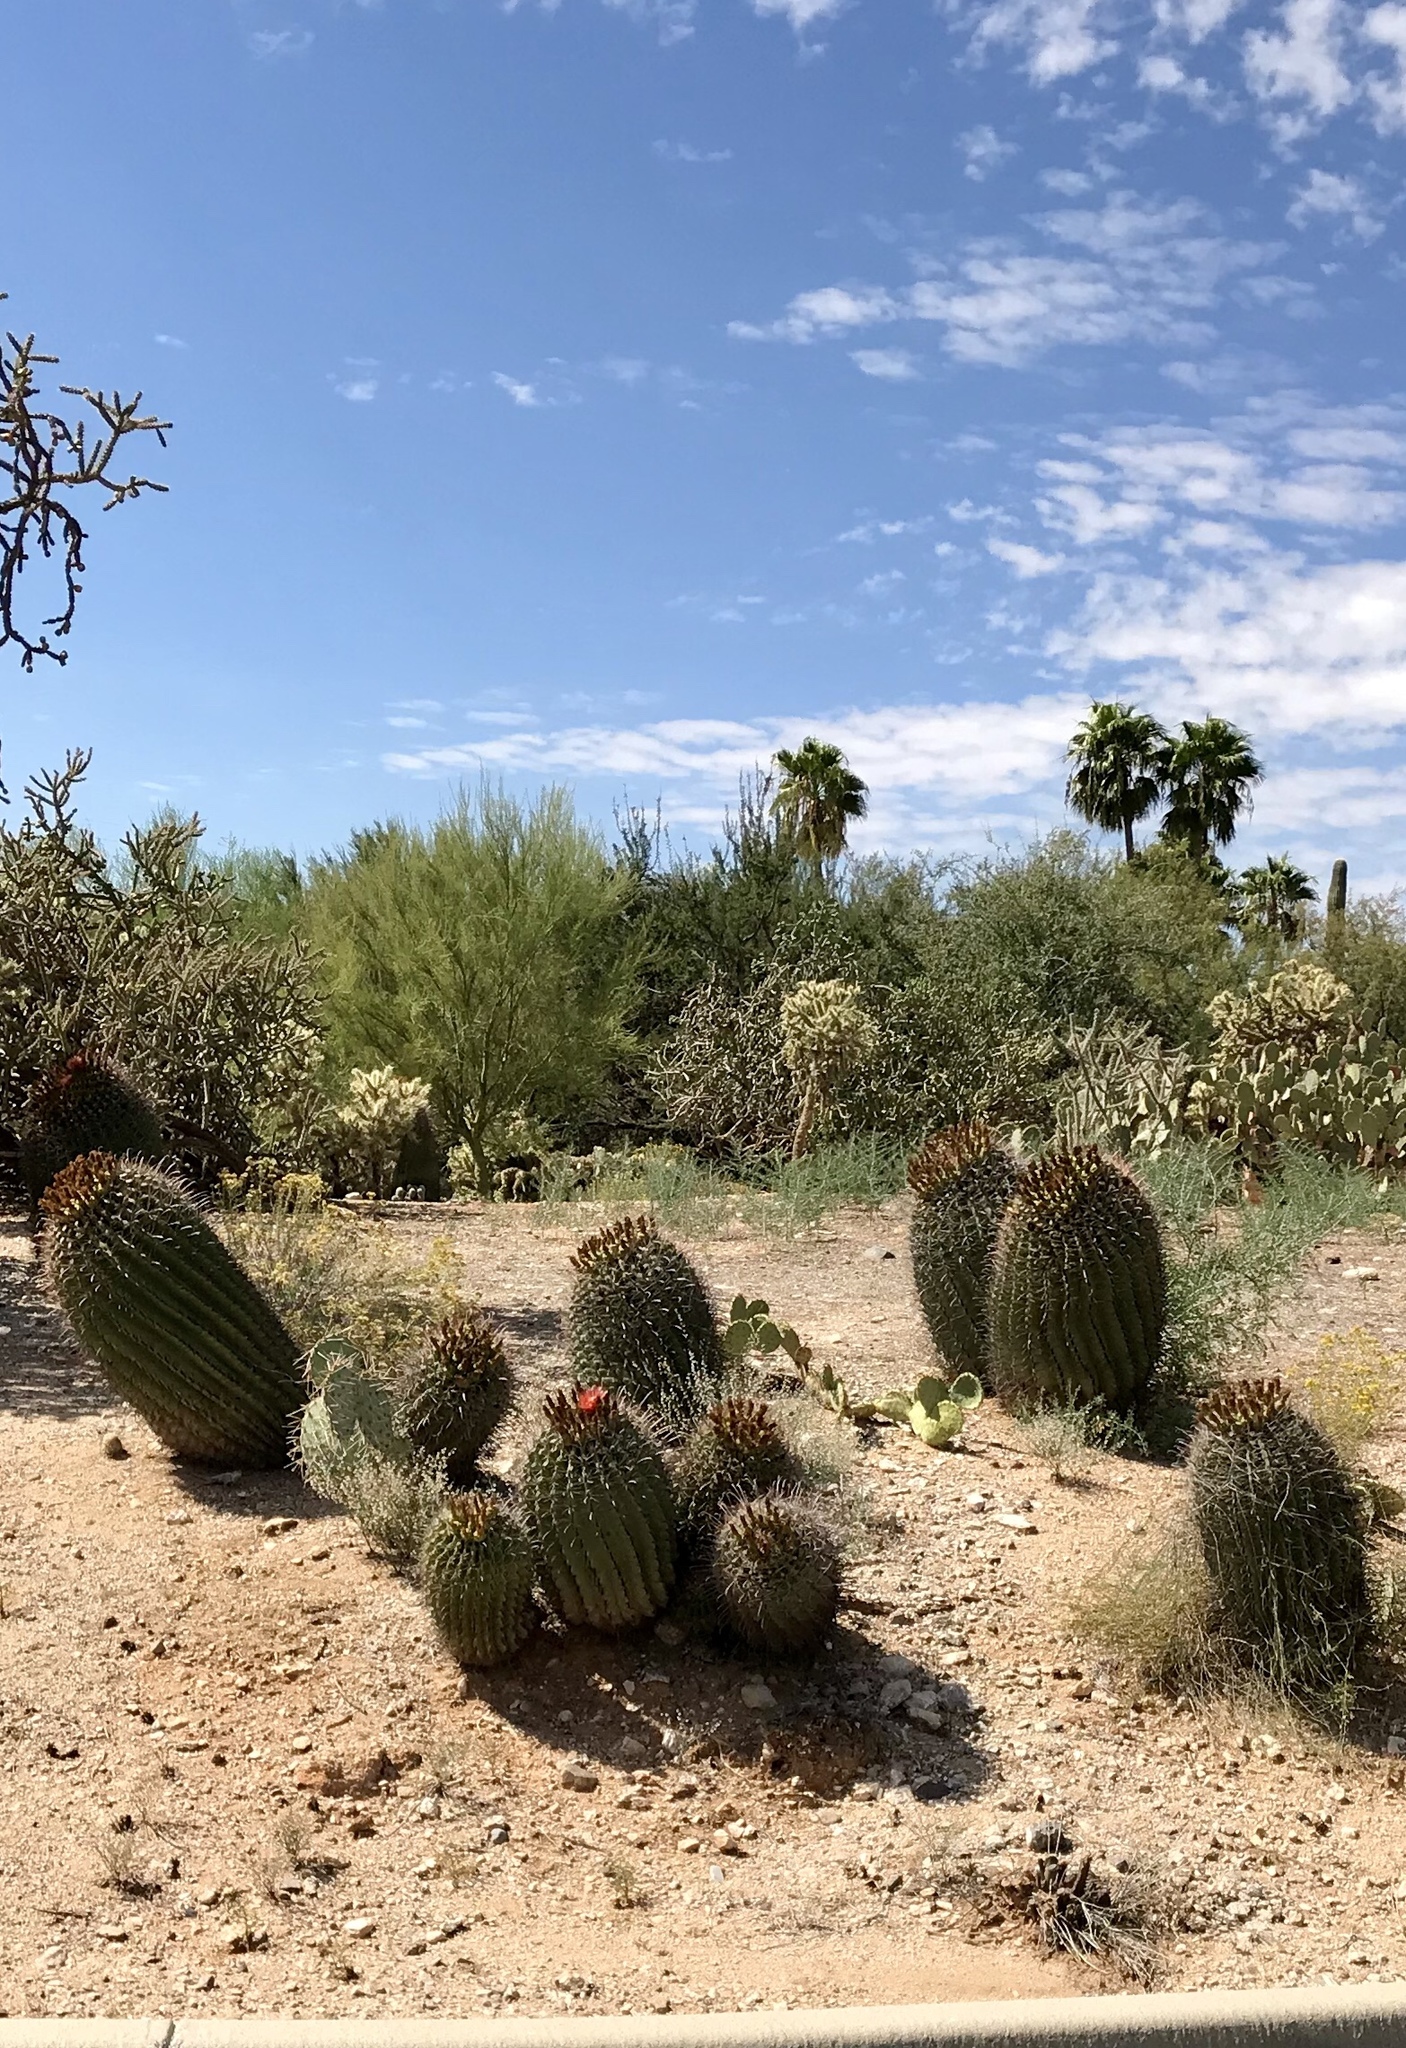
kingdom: Plantae
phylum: Tracheophyta
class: Magnoliopsida
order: Caryophyllales
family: Cactaceae
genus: Ferocactus
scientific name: Ferocactus wislizeni
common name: Candy barrel cactus
